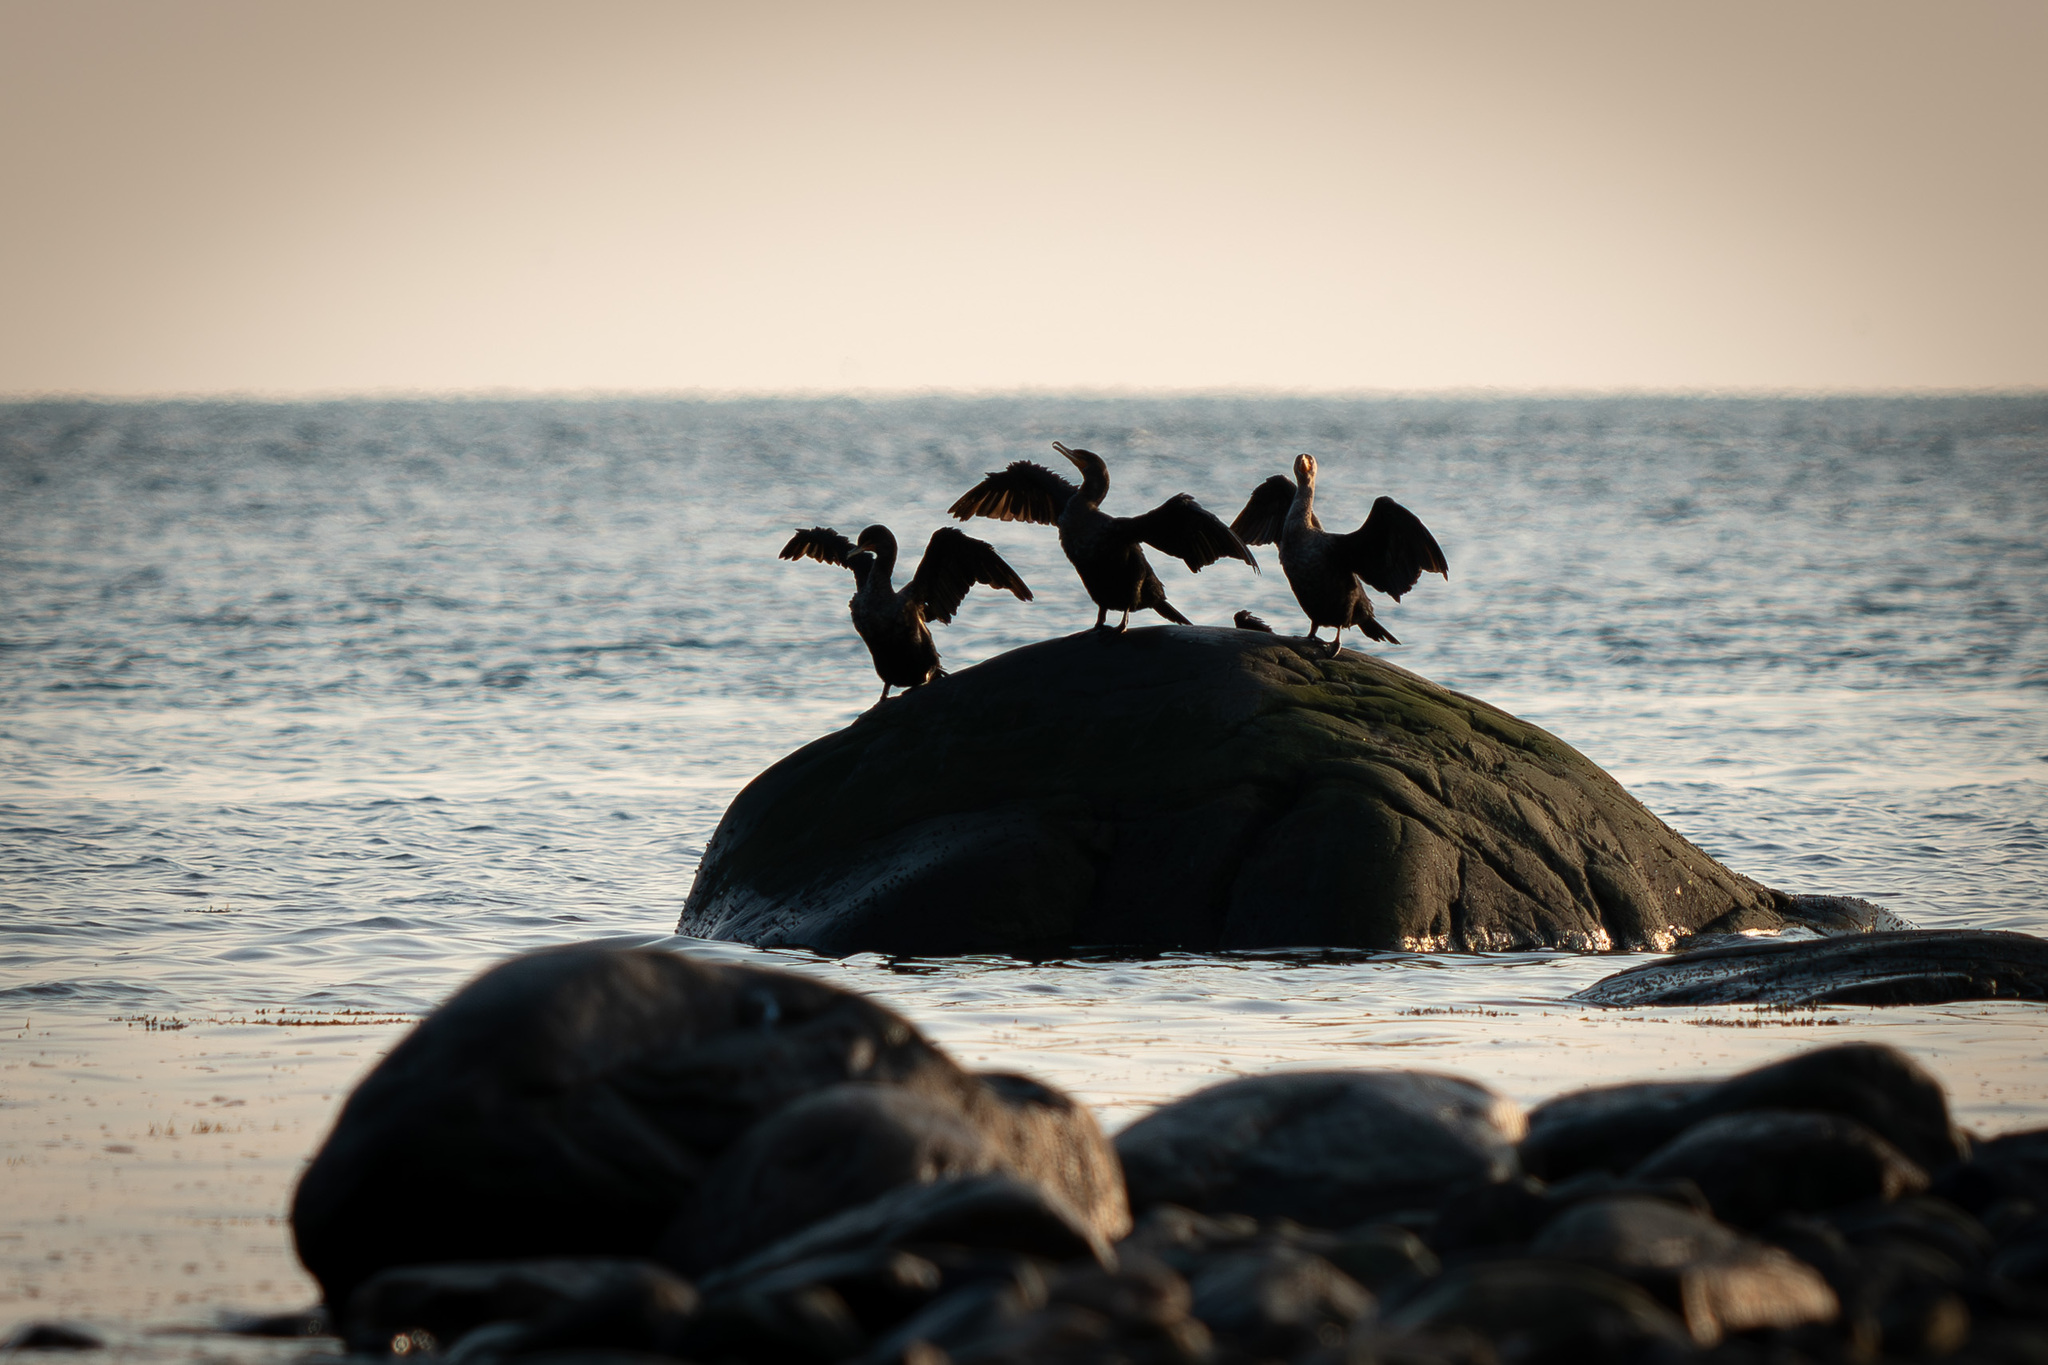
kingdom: Animalia
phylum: Chordata
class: Aves
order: Suliformes
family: Phalacrocoracidae
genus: Phalacrocorax
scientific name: Phalacrocorax auritus
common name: Double-crested cormorant
